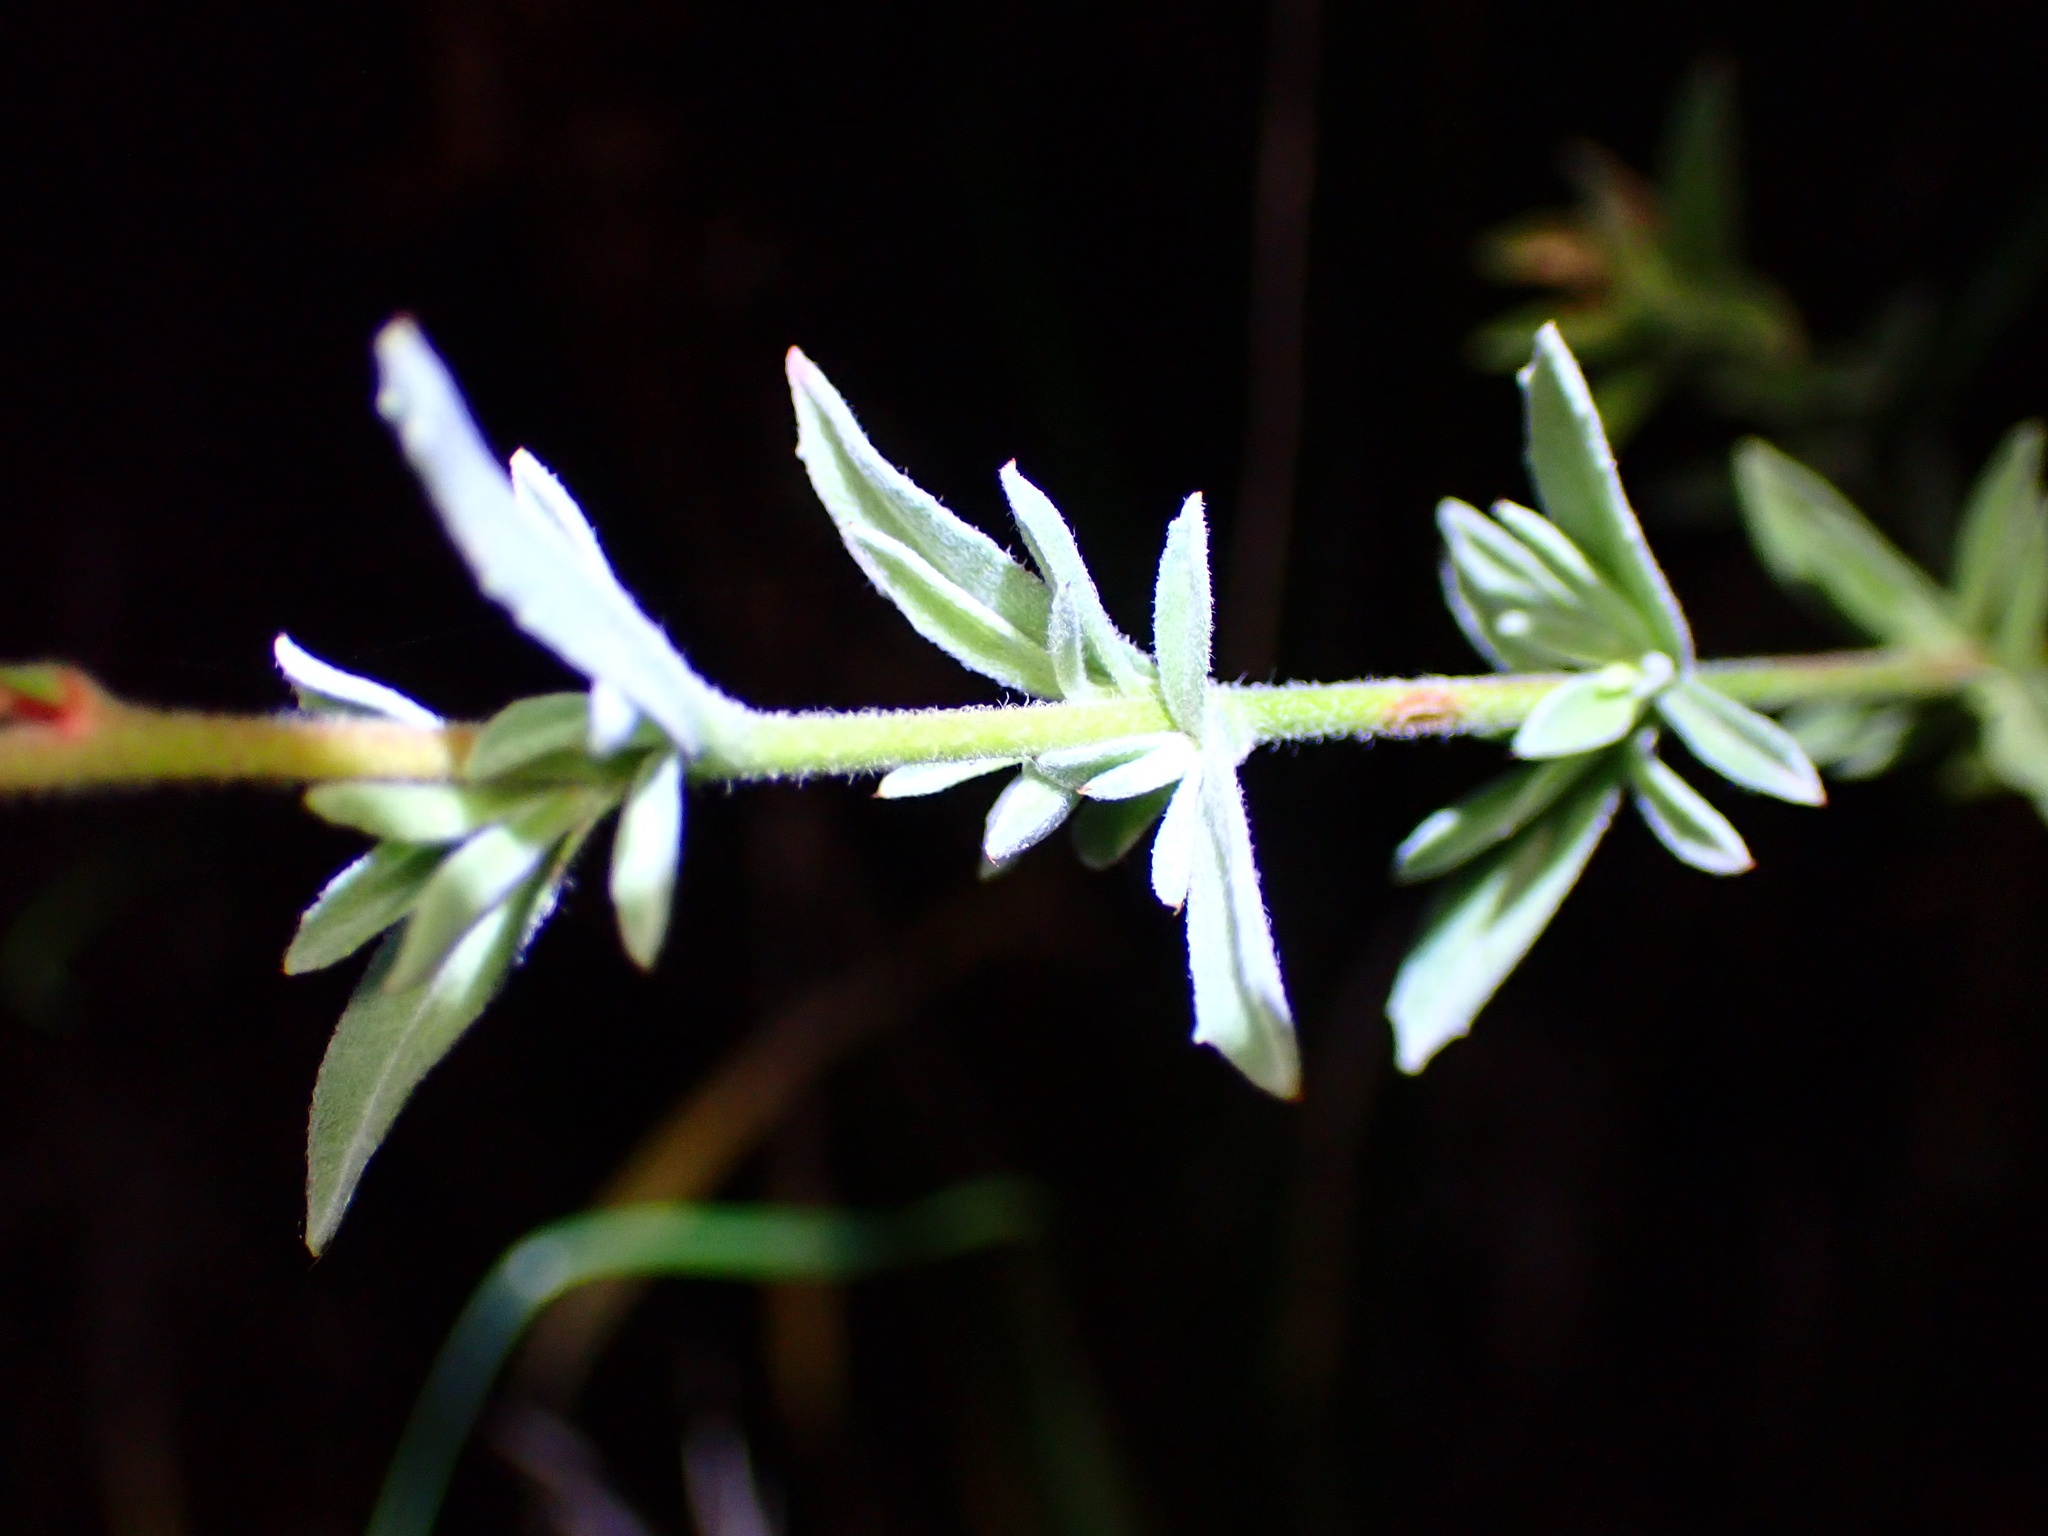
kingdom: Plantae
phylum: Tracheophyta
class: Magnoliopsida
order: Myrtales
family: Onagraceae
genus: Epilobium
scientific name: Epilobium canum
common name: California-fuchsia
